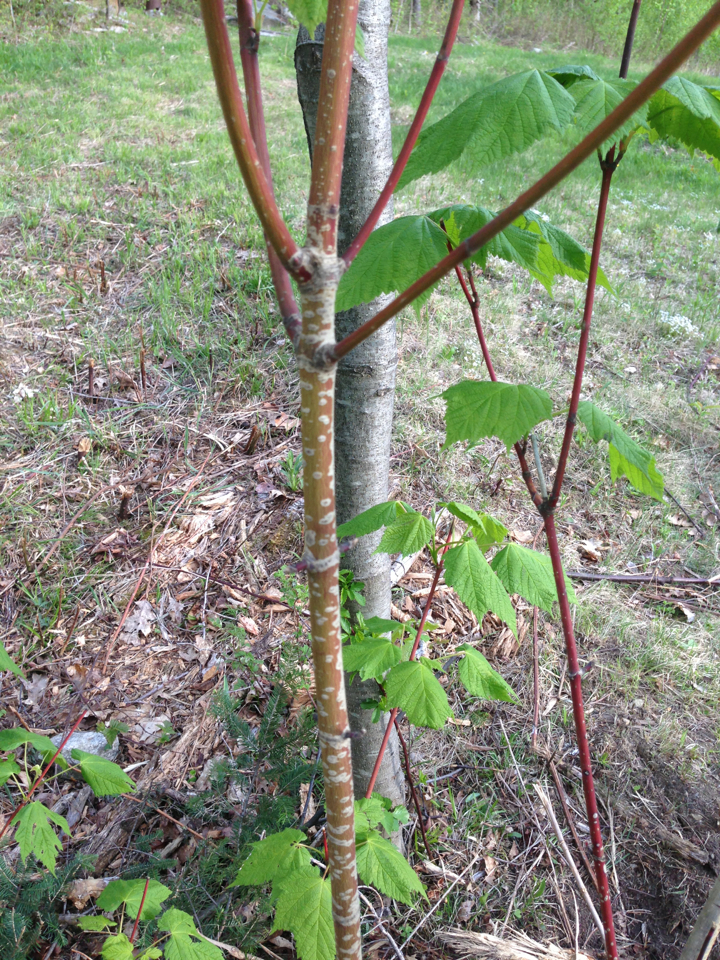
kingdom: Plantae
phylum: Tracheophyta
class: Magnoliopsida
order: Sapindales
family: Sapindaceae
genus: Acer
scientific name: Acer spicatum
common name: Mountain maple
